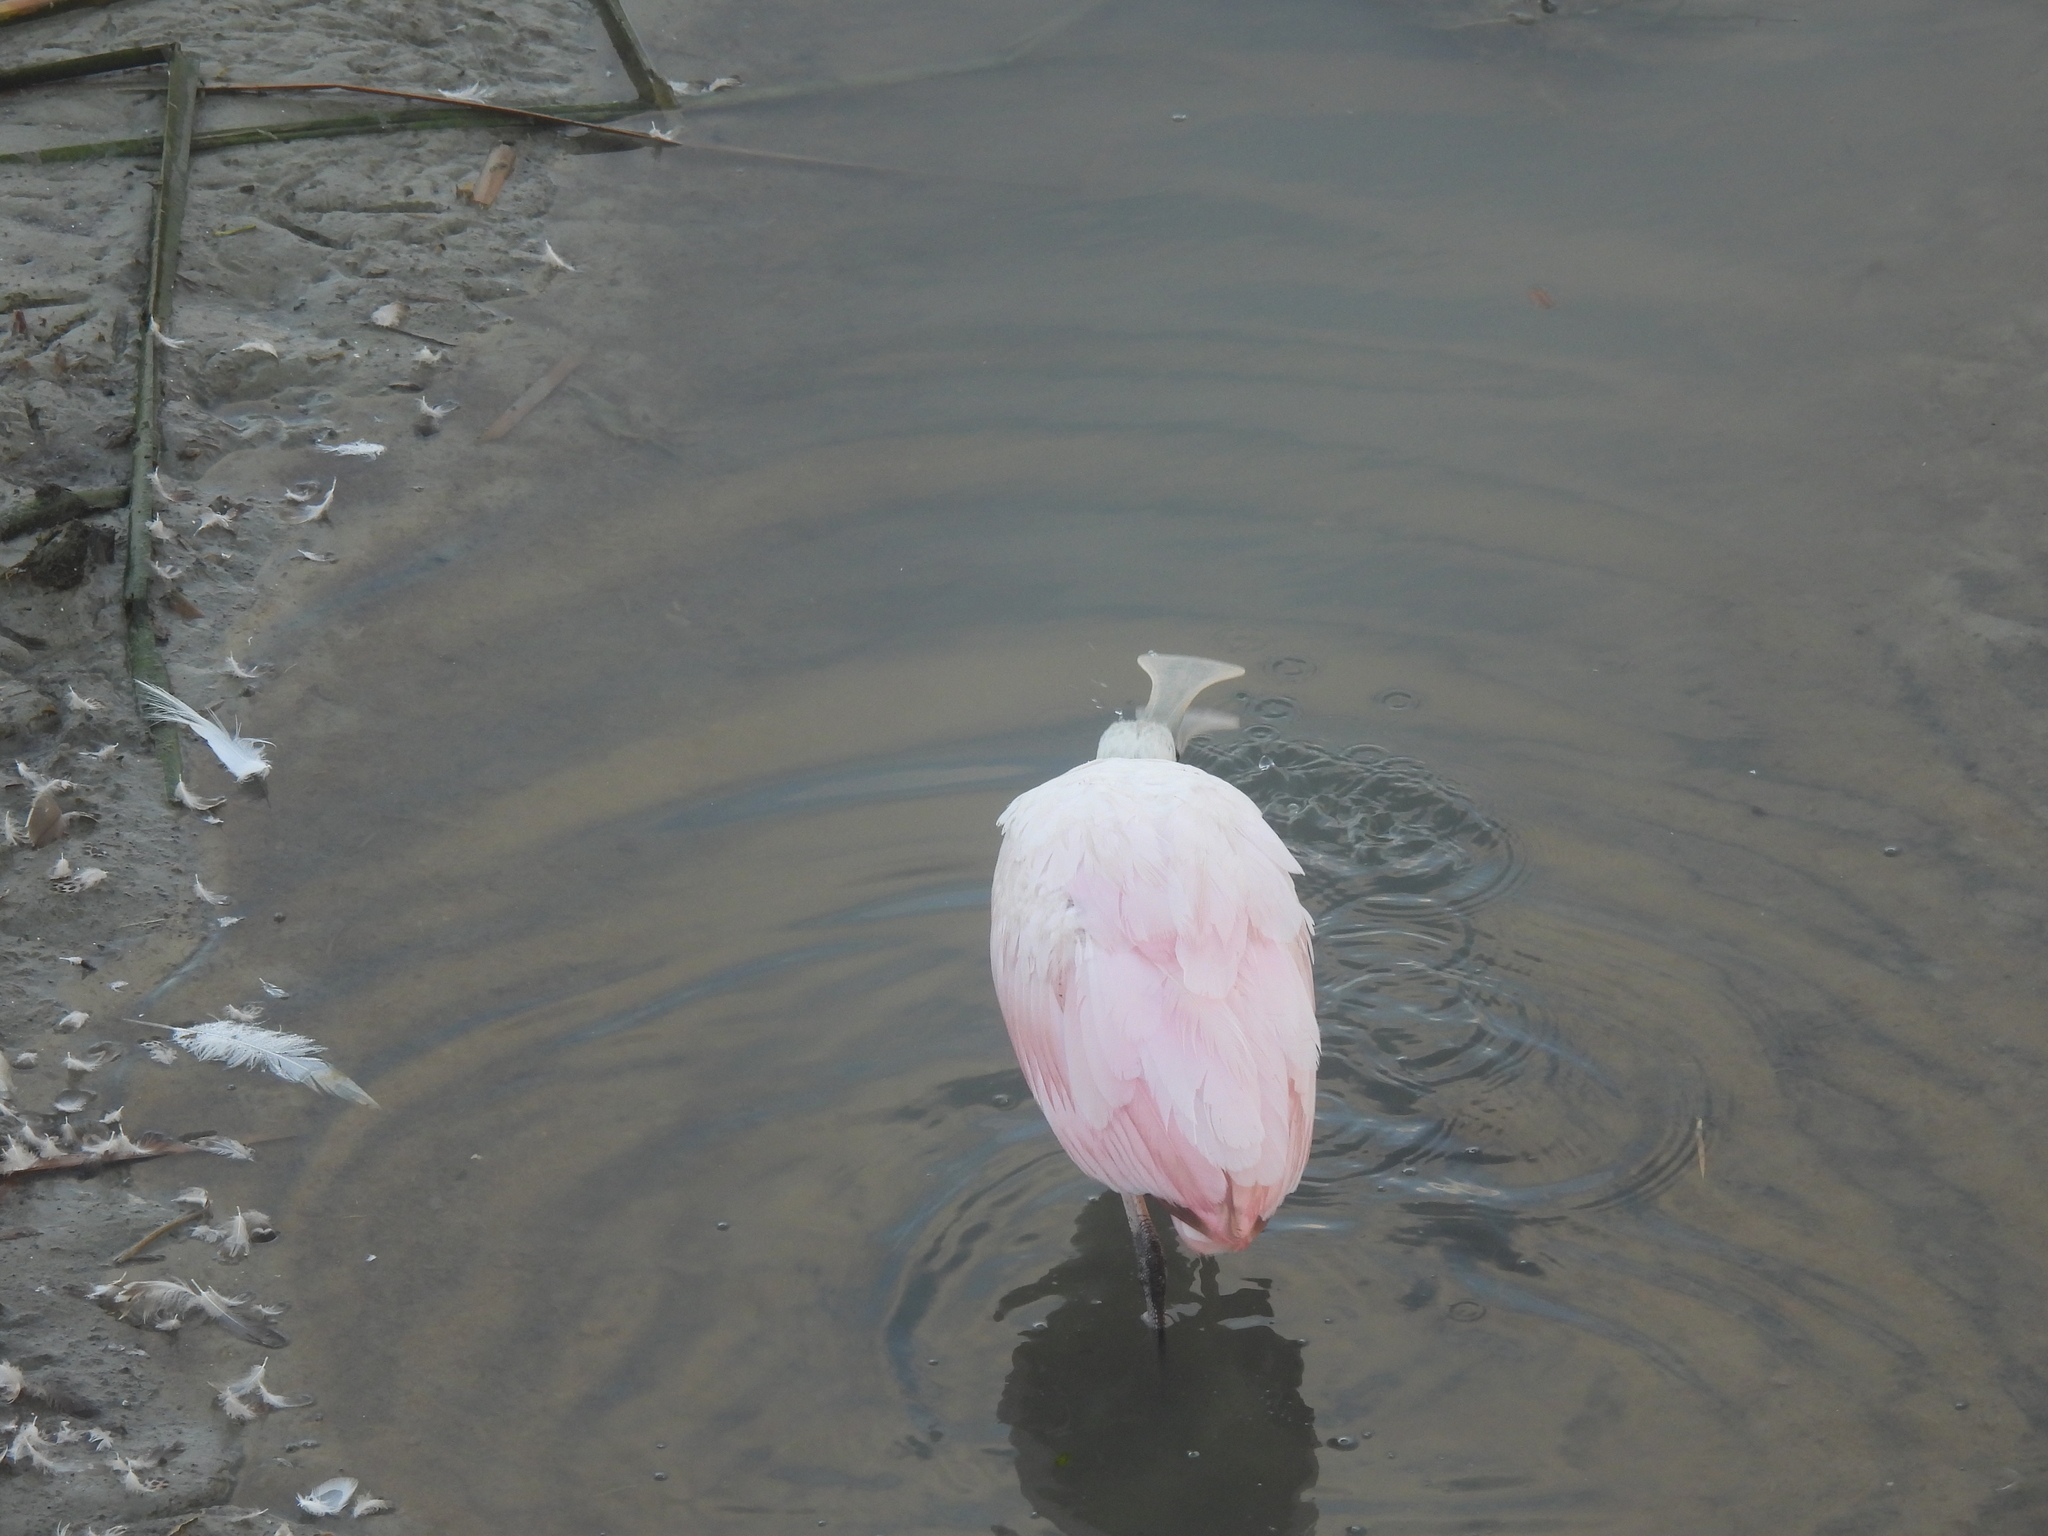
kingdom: Animalia
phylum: Chordata
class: Aves
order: Pelecaniformes
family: Threskiornithidae
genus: Platalea
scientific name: Platalea ajaja
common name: Roseate spoonbill
